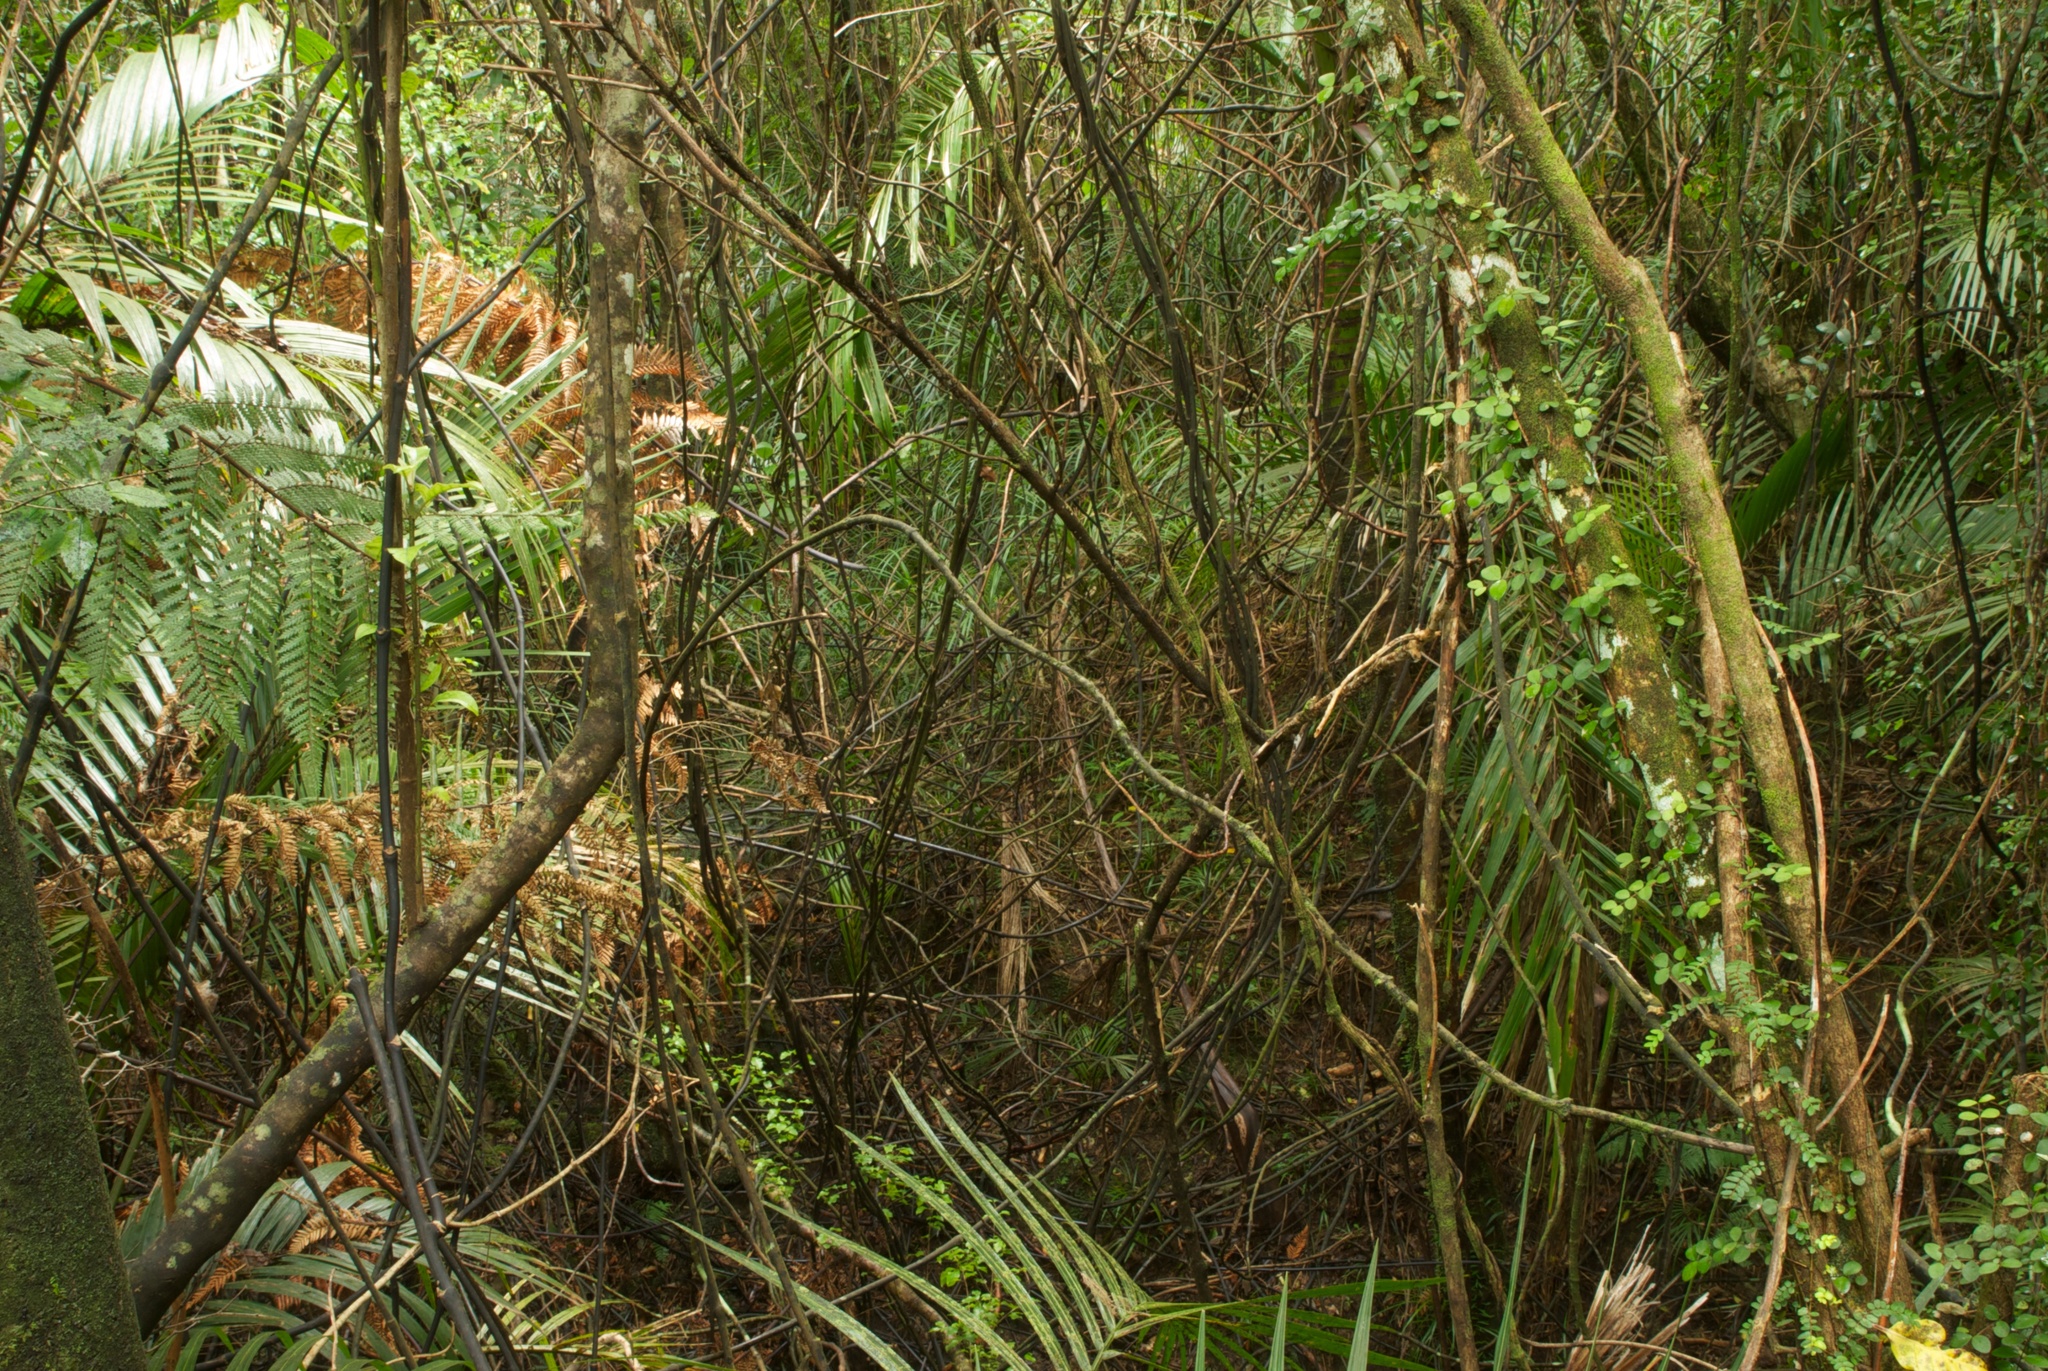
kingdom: Plantae
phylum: Tracheophyta
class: Liliopsida
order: Liliales
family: Ripogonaceae
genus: Ripogonum
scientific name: Ripogonum scandens
